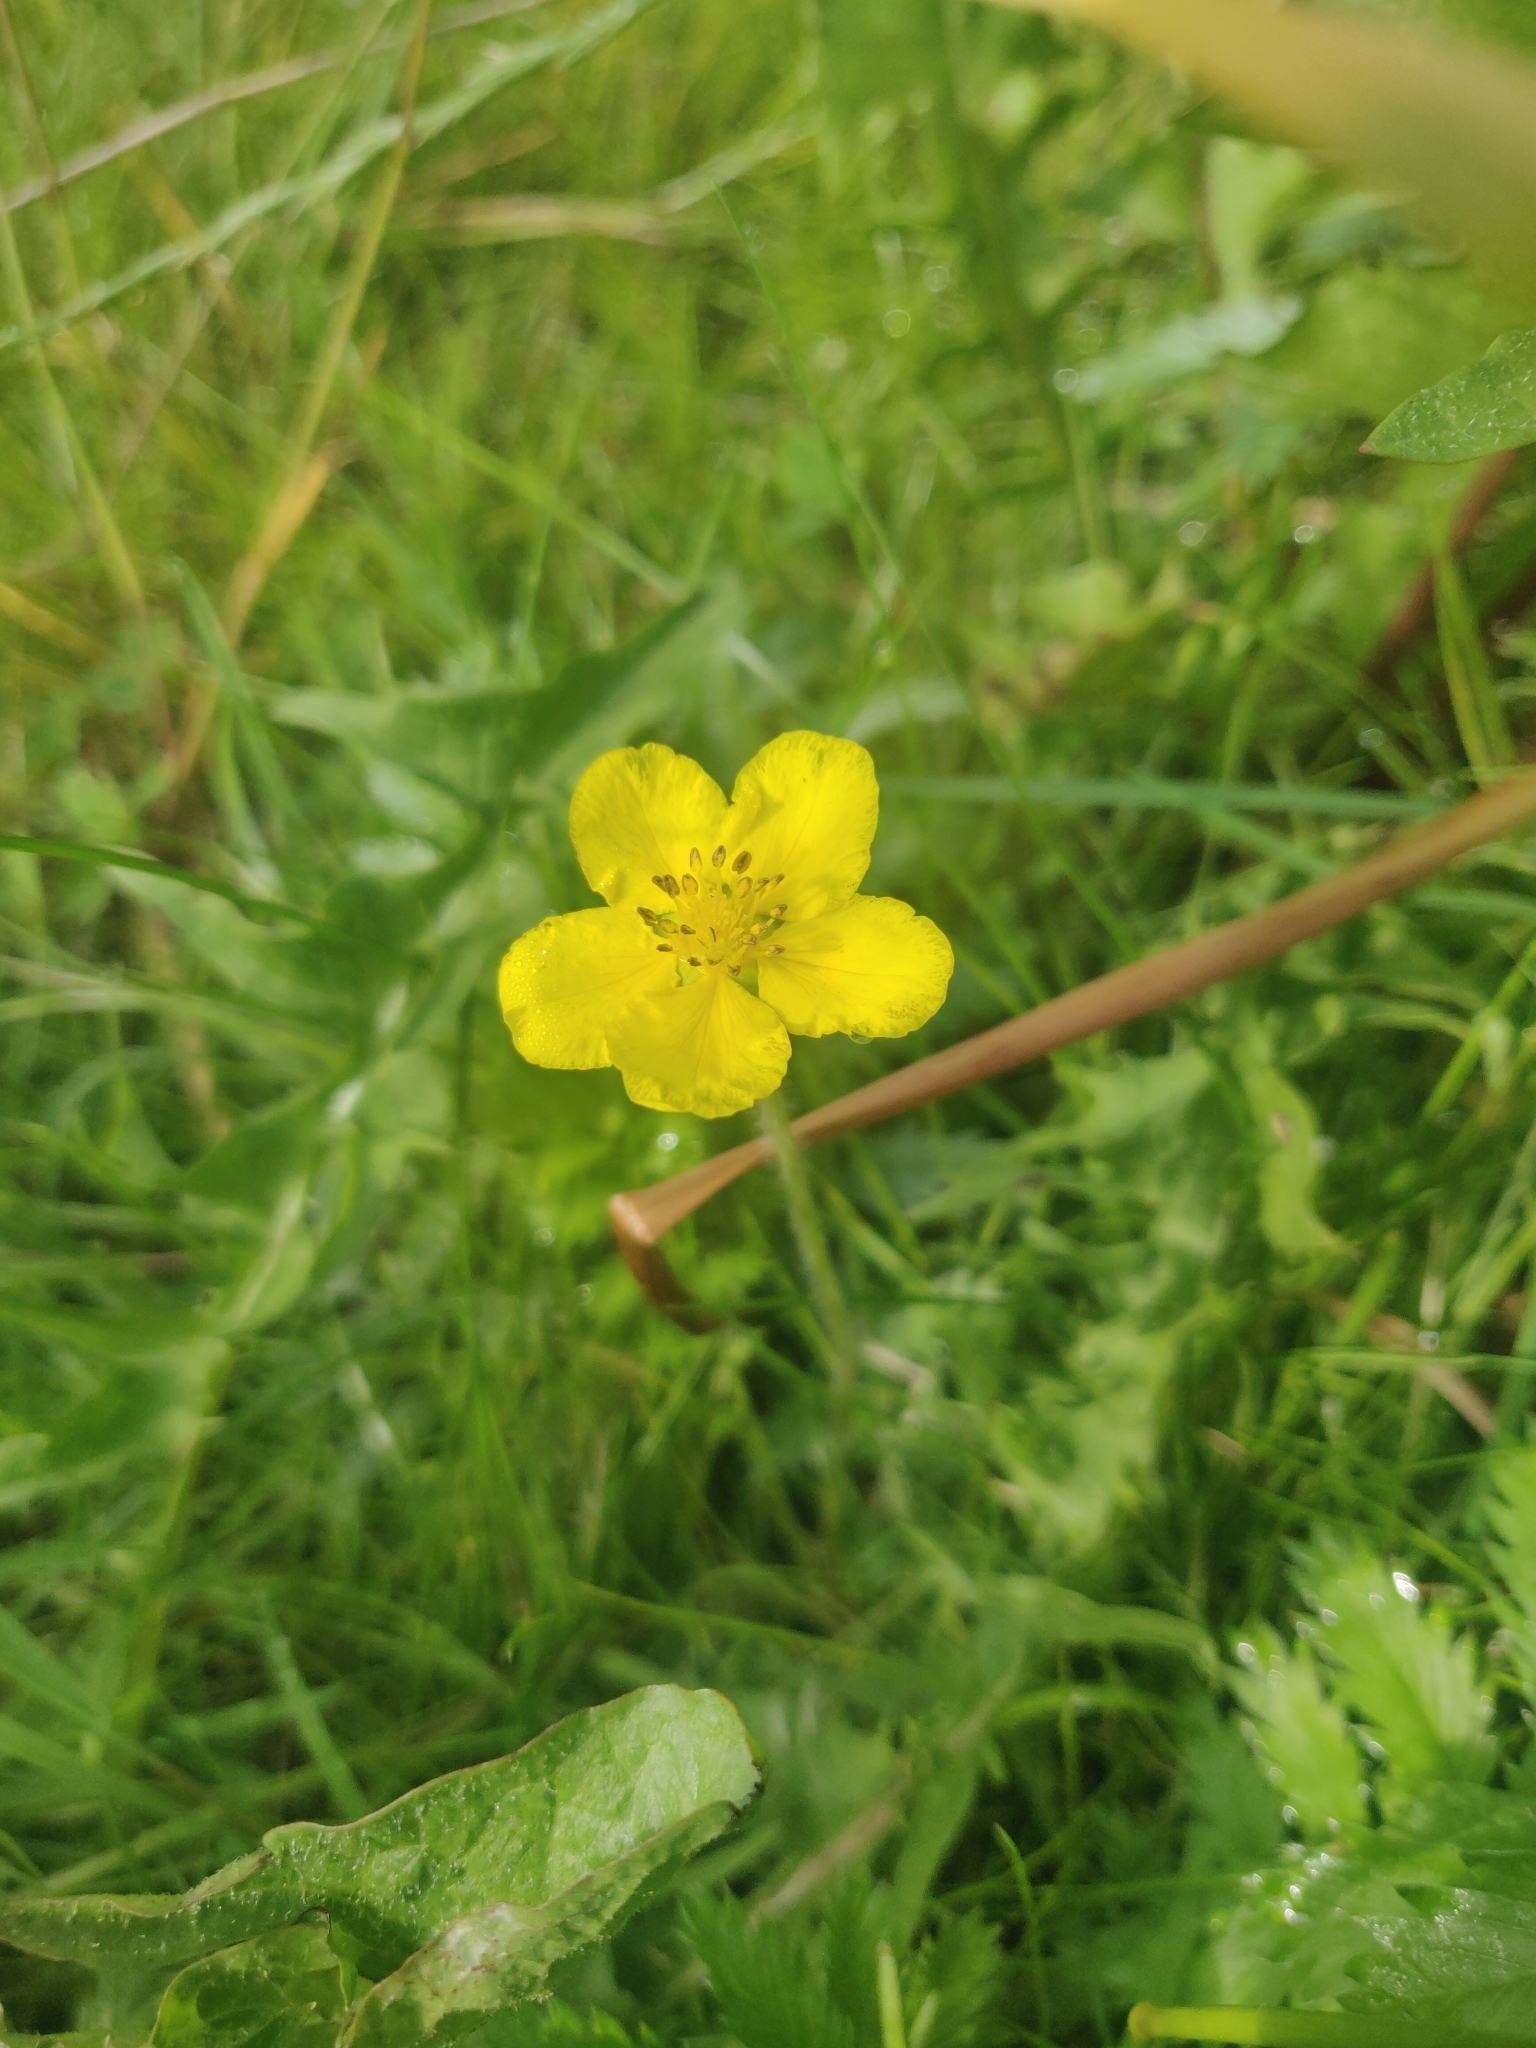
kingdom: Plantae
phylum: Tracheophyta
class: Magnoliopsida
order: Rosales
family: Rosaceae
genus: Argentina
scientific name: Argentina anserina
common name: Common silverweed
